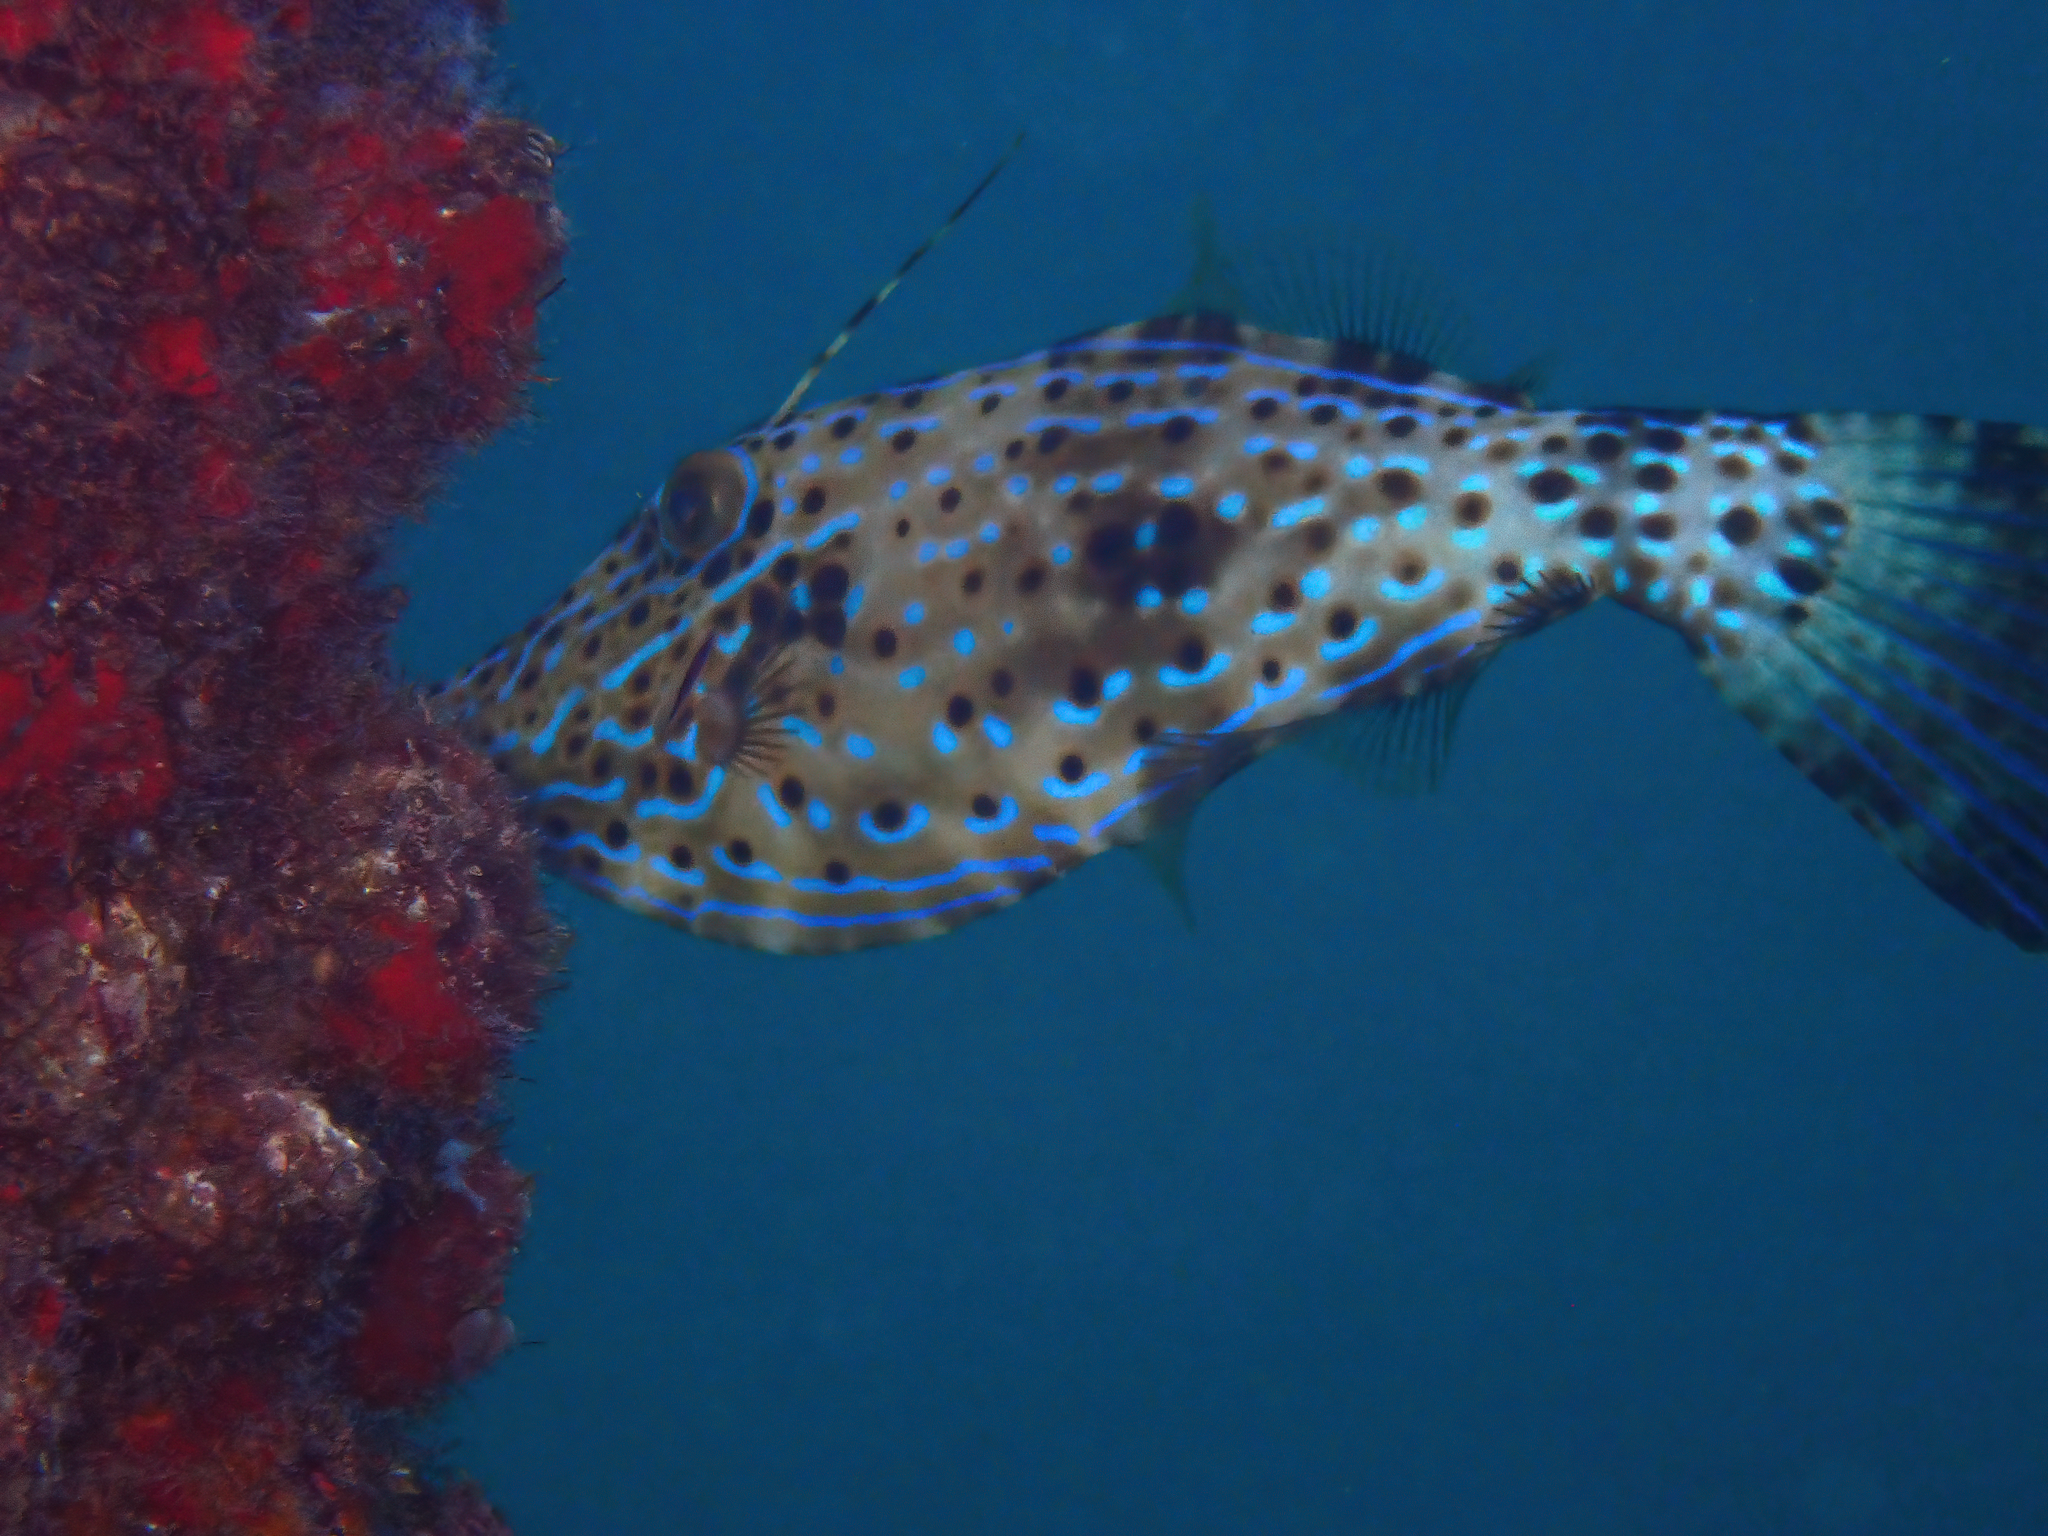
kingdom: Animalia
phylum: Chordata
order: Tetraodontiformes
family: Monacanthidae
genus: Aluterus
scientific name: Aluterus scriptus
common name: Scribbled leatherjacket filefish
